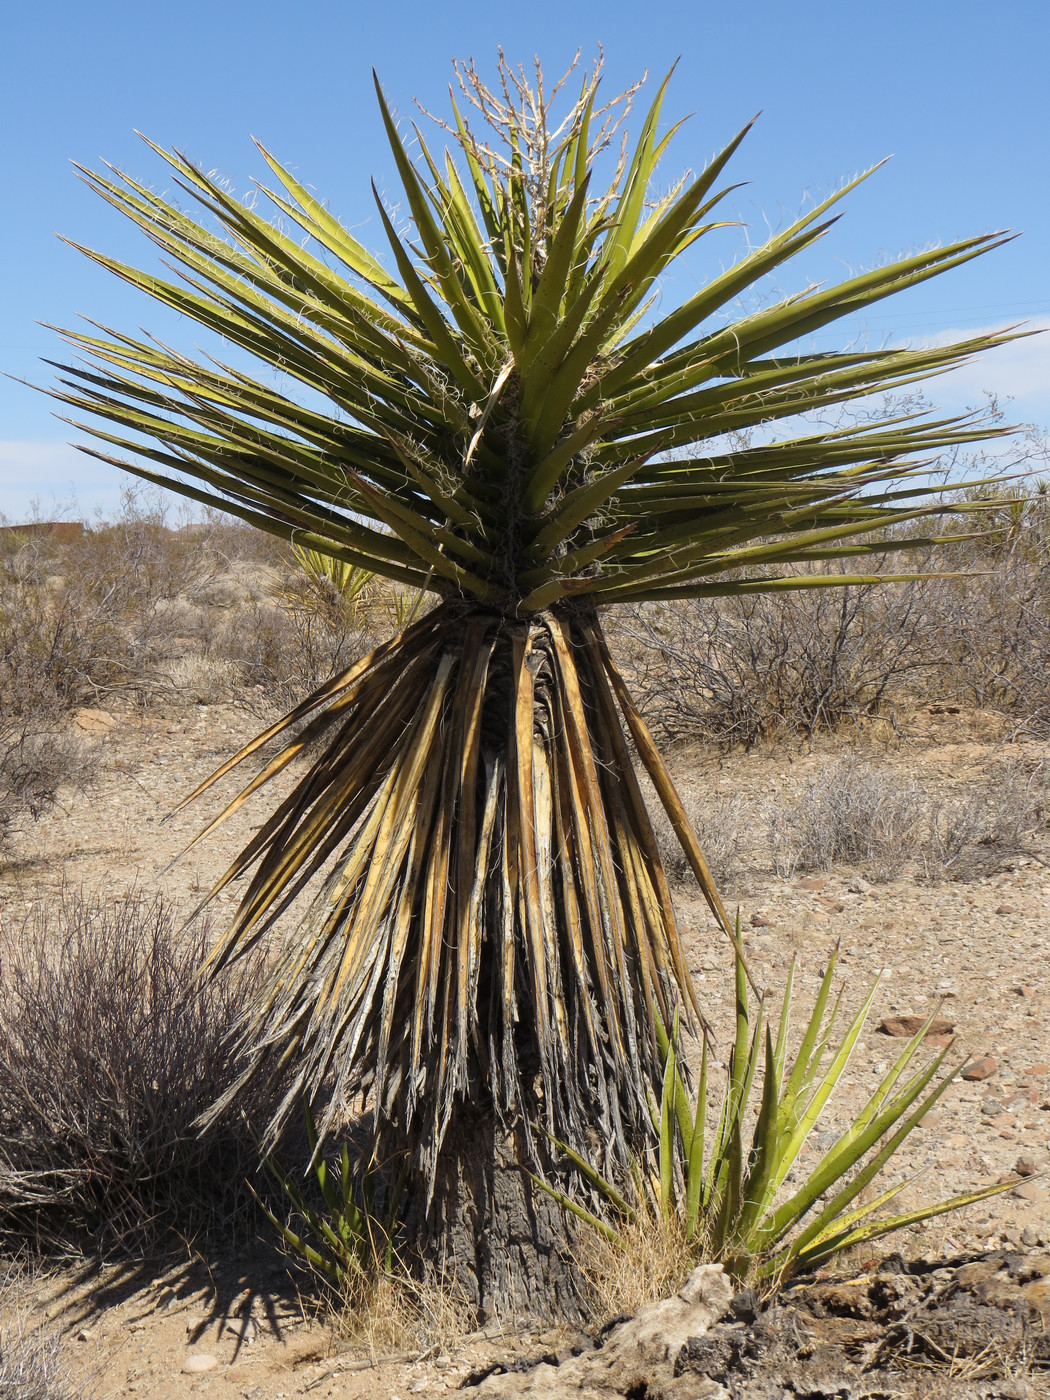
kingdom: Plantae
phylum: Tracheophyta
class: Liliopsida
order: Asparagales
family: Asparagaceae
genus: Yucca
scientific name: Yucca schidigera
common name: Mojave yucca
